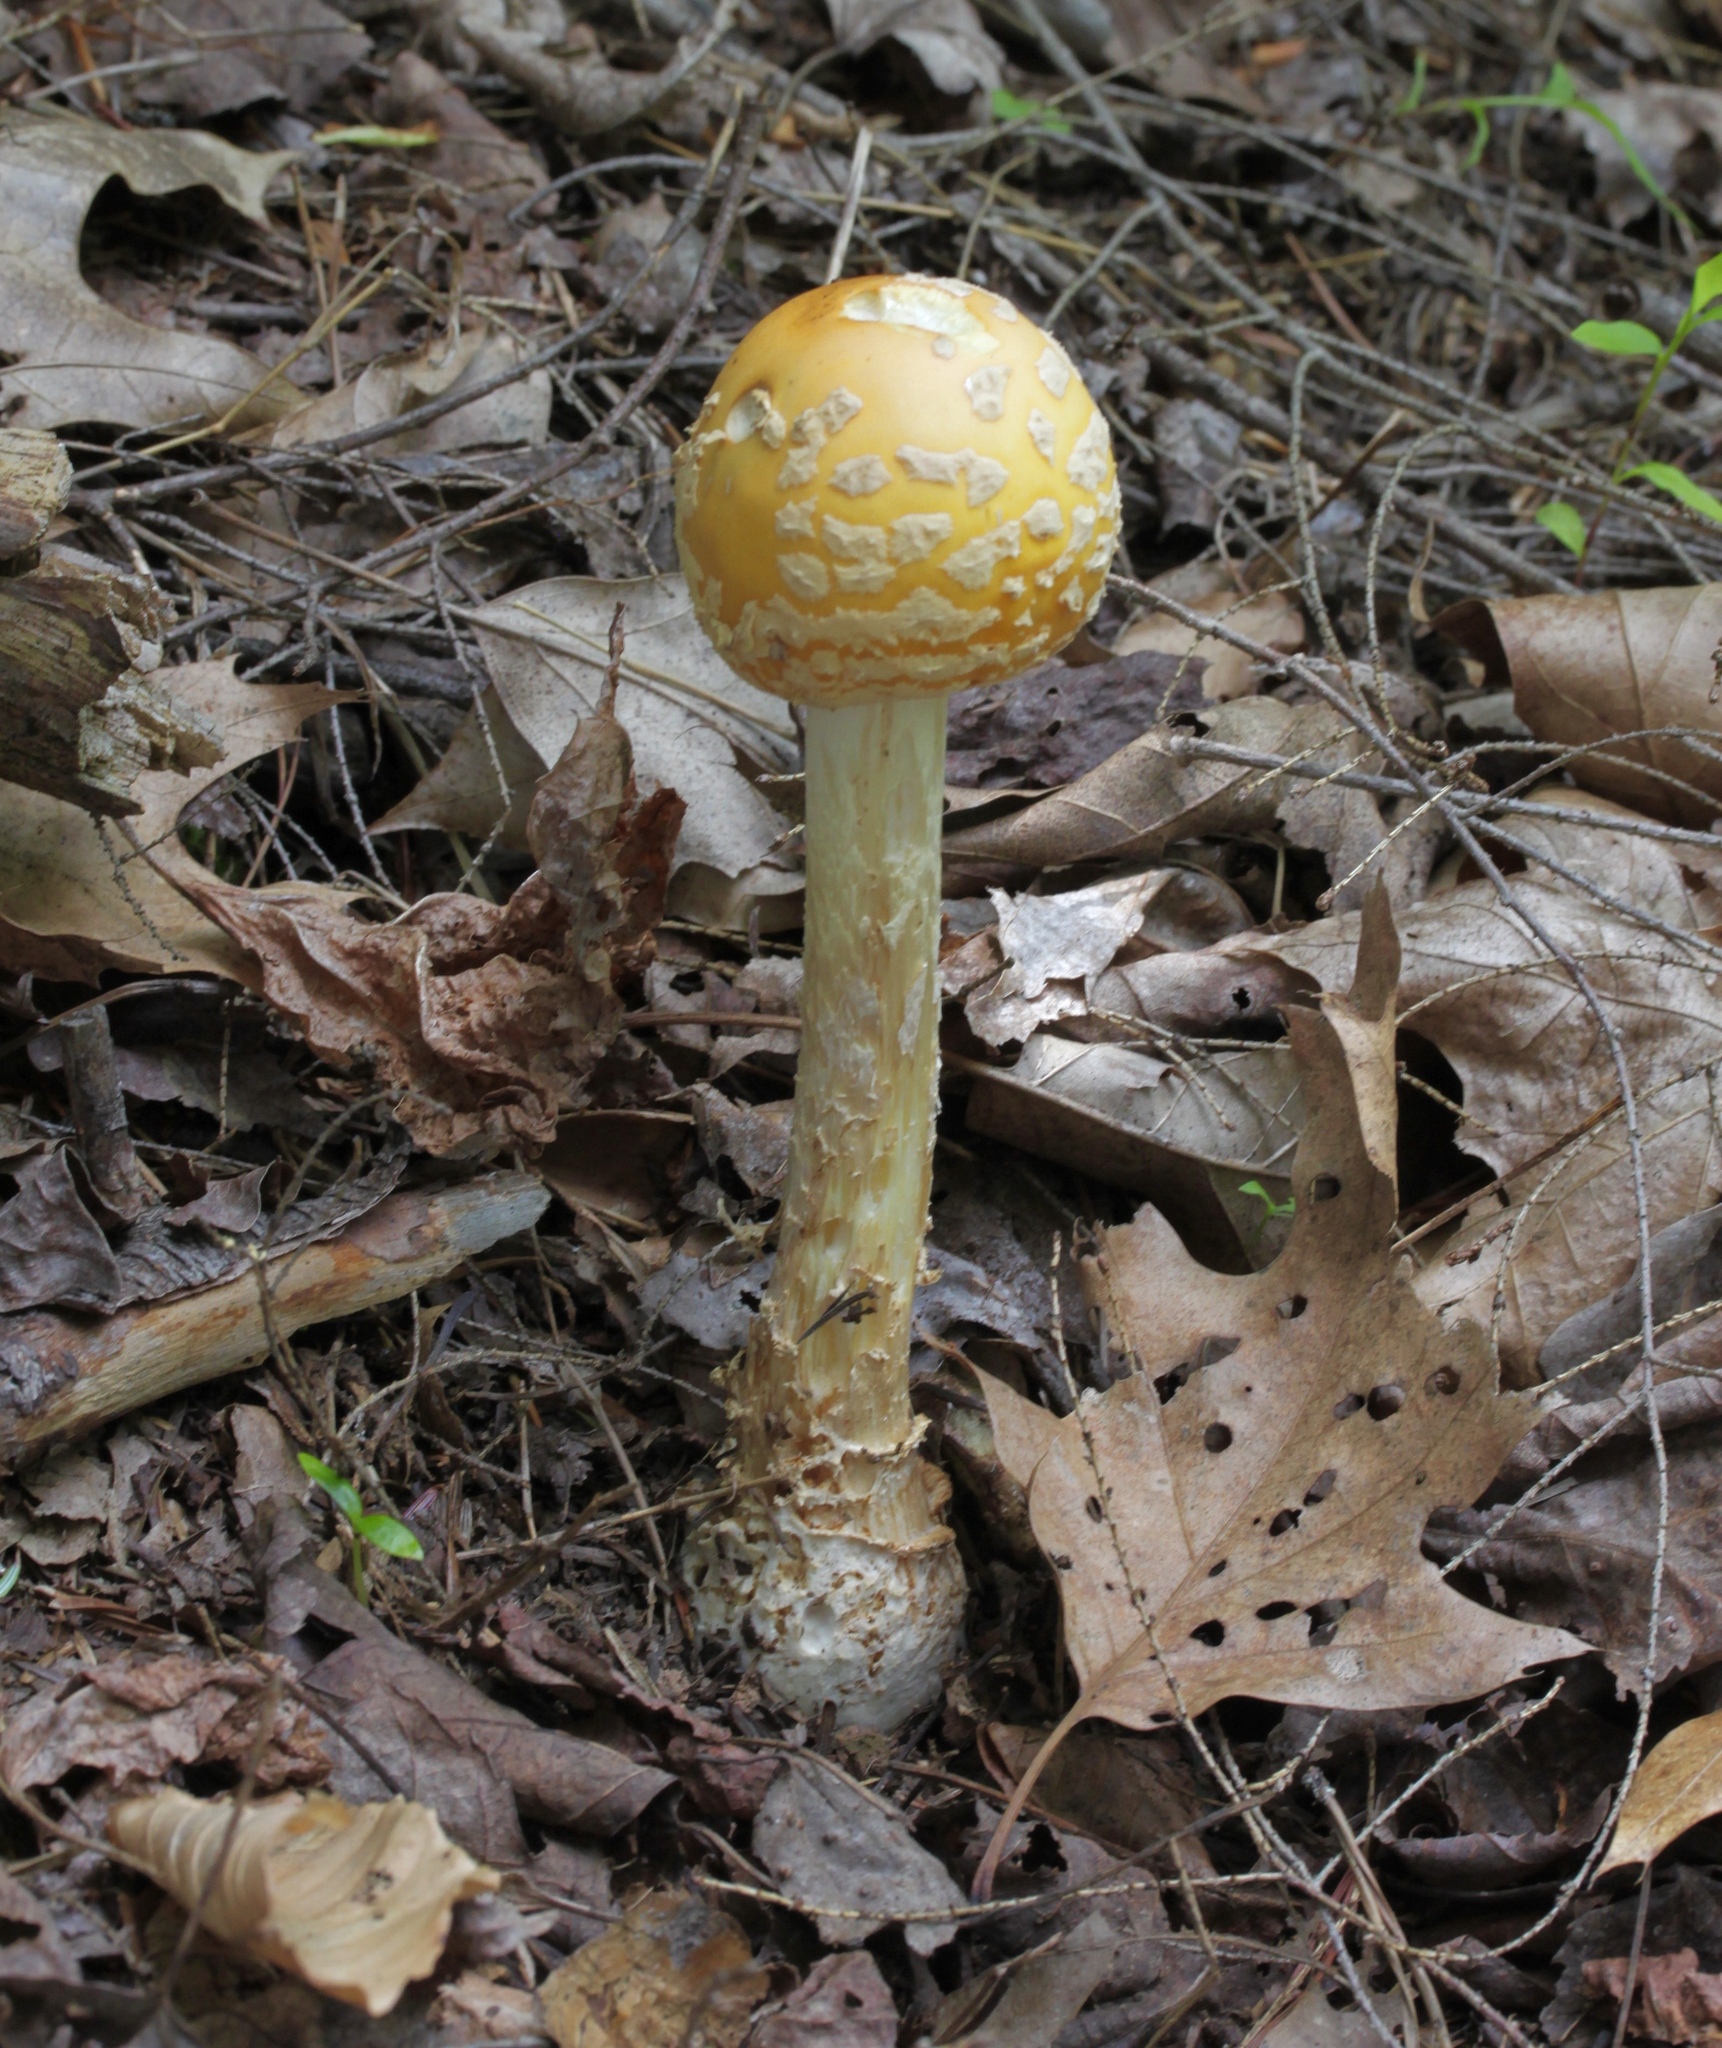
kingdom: Fungi
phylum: Basidiomycota
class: Agaricomycetes
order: Agaricales
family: Amanitaceae
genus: Amanita
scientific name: Amanita muscaria
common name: Fly agaric
